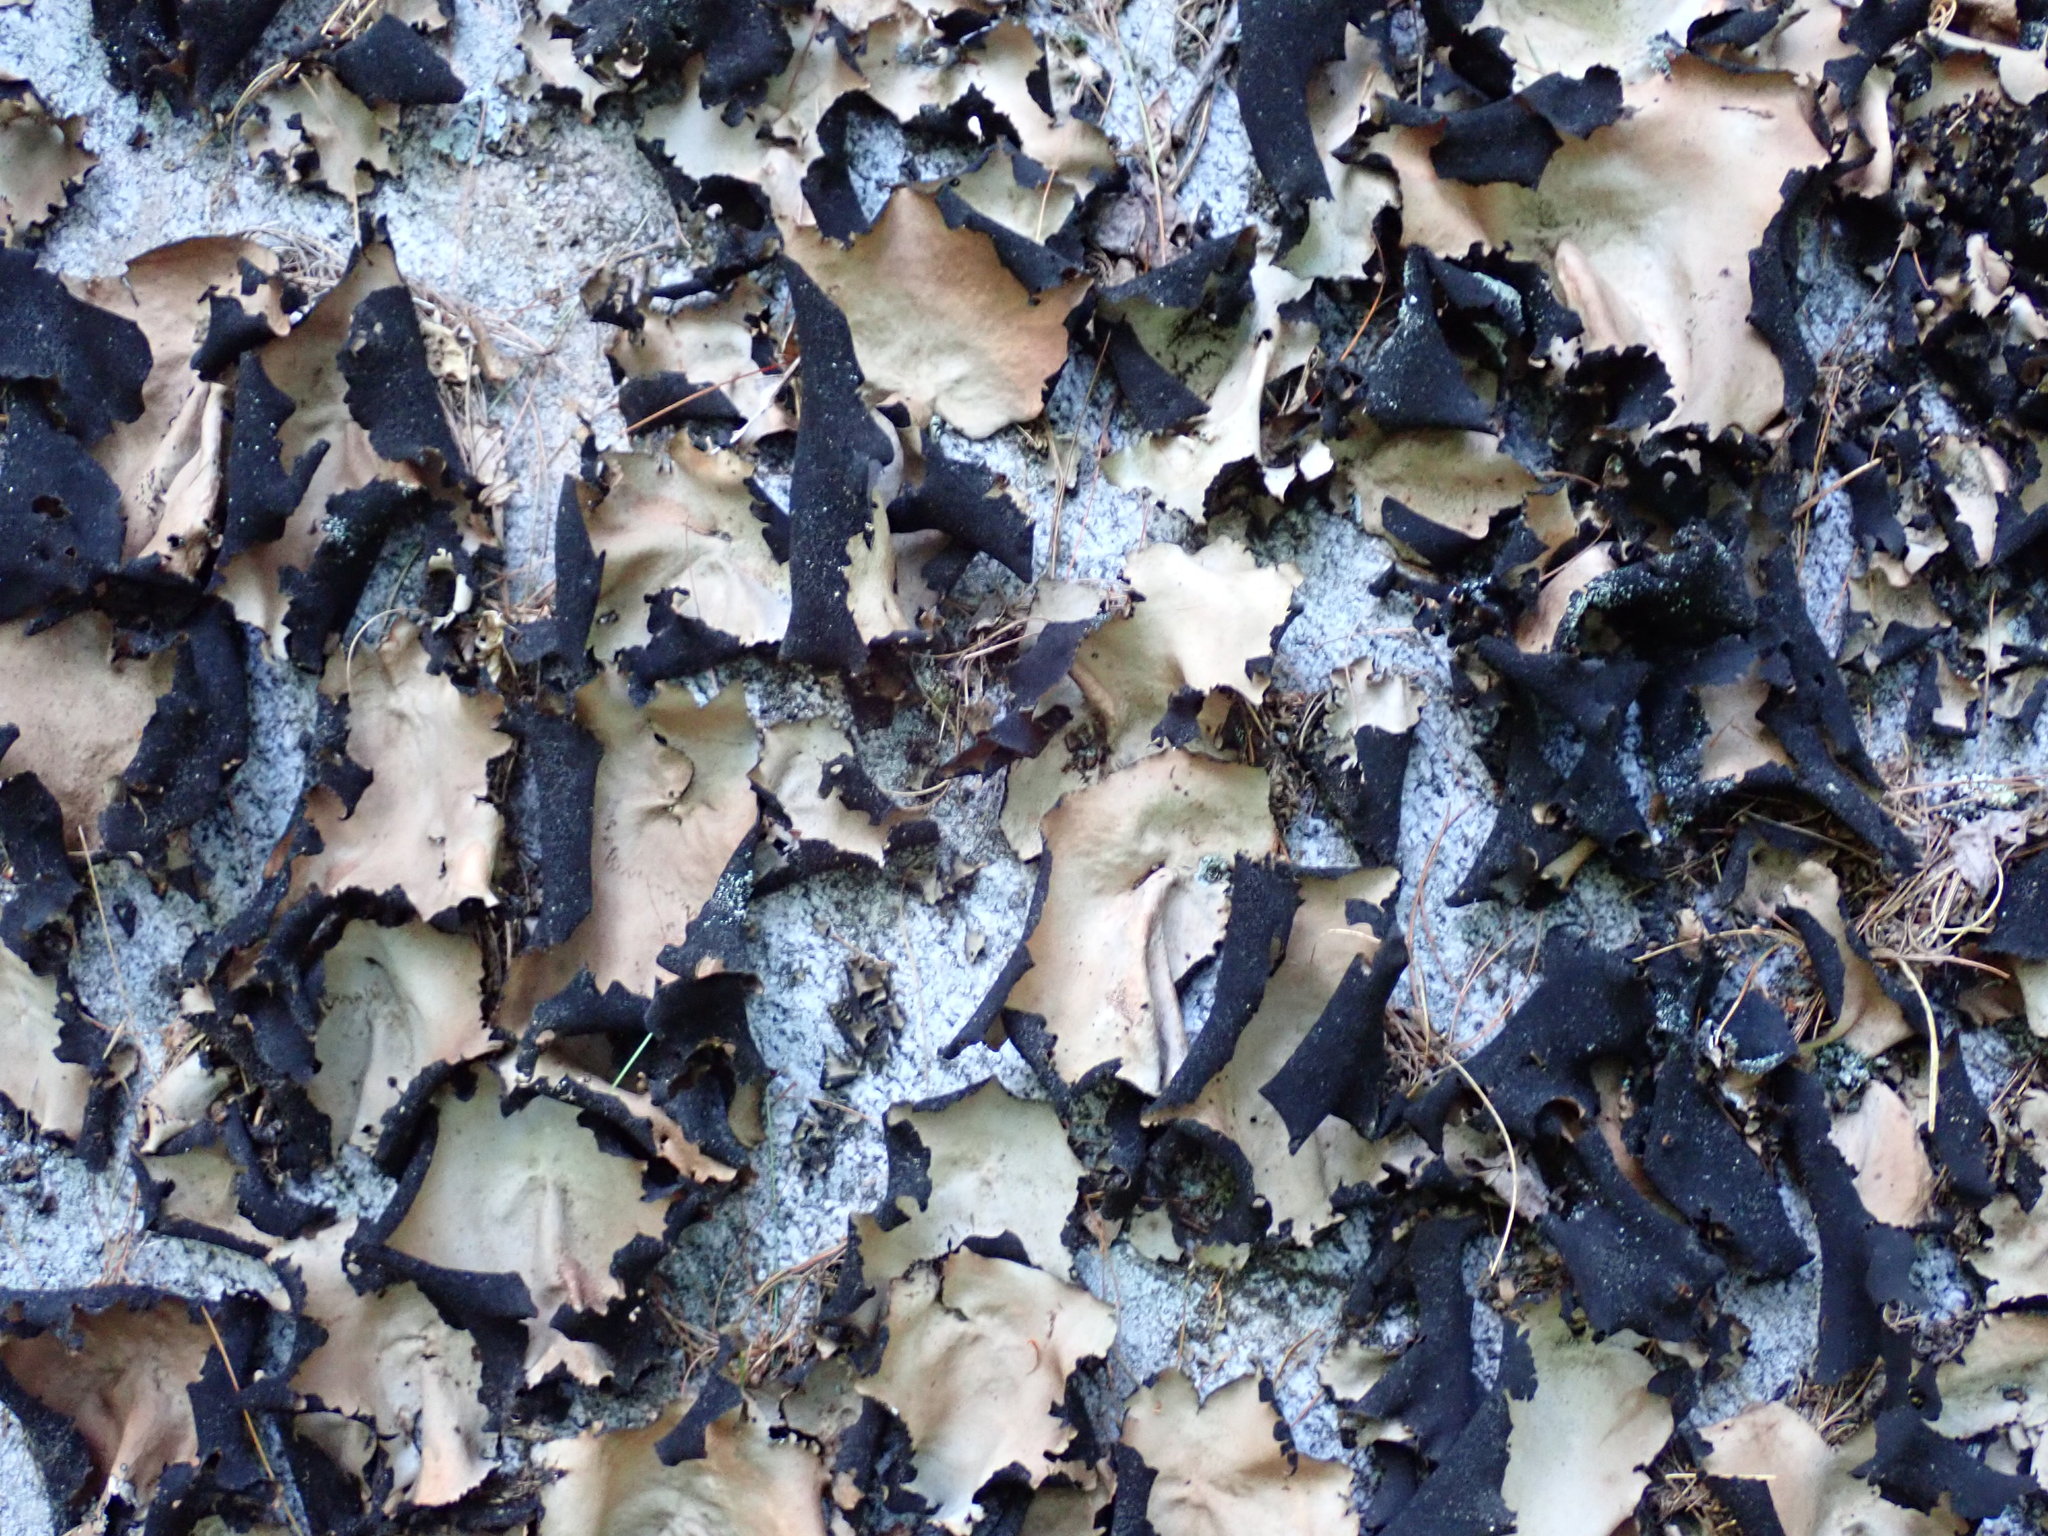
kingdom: Fungi
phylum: Ascomycota
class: Lecanoromycetes
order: Umbilicariales
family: Umbilicariaceae
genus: Umbilicaria
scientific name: Umbilicaria mammulata
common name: Smooth rock tripe
